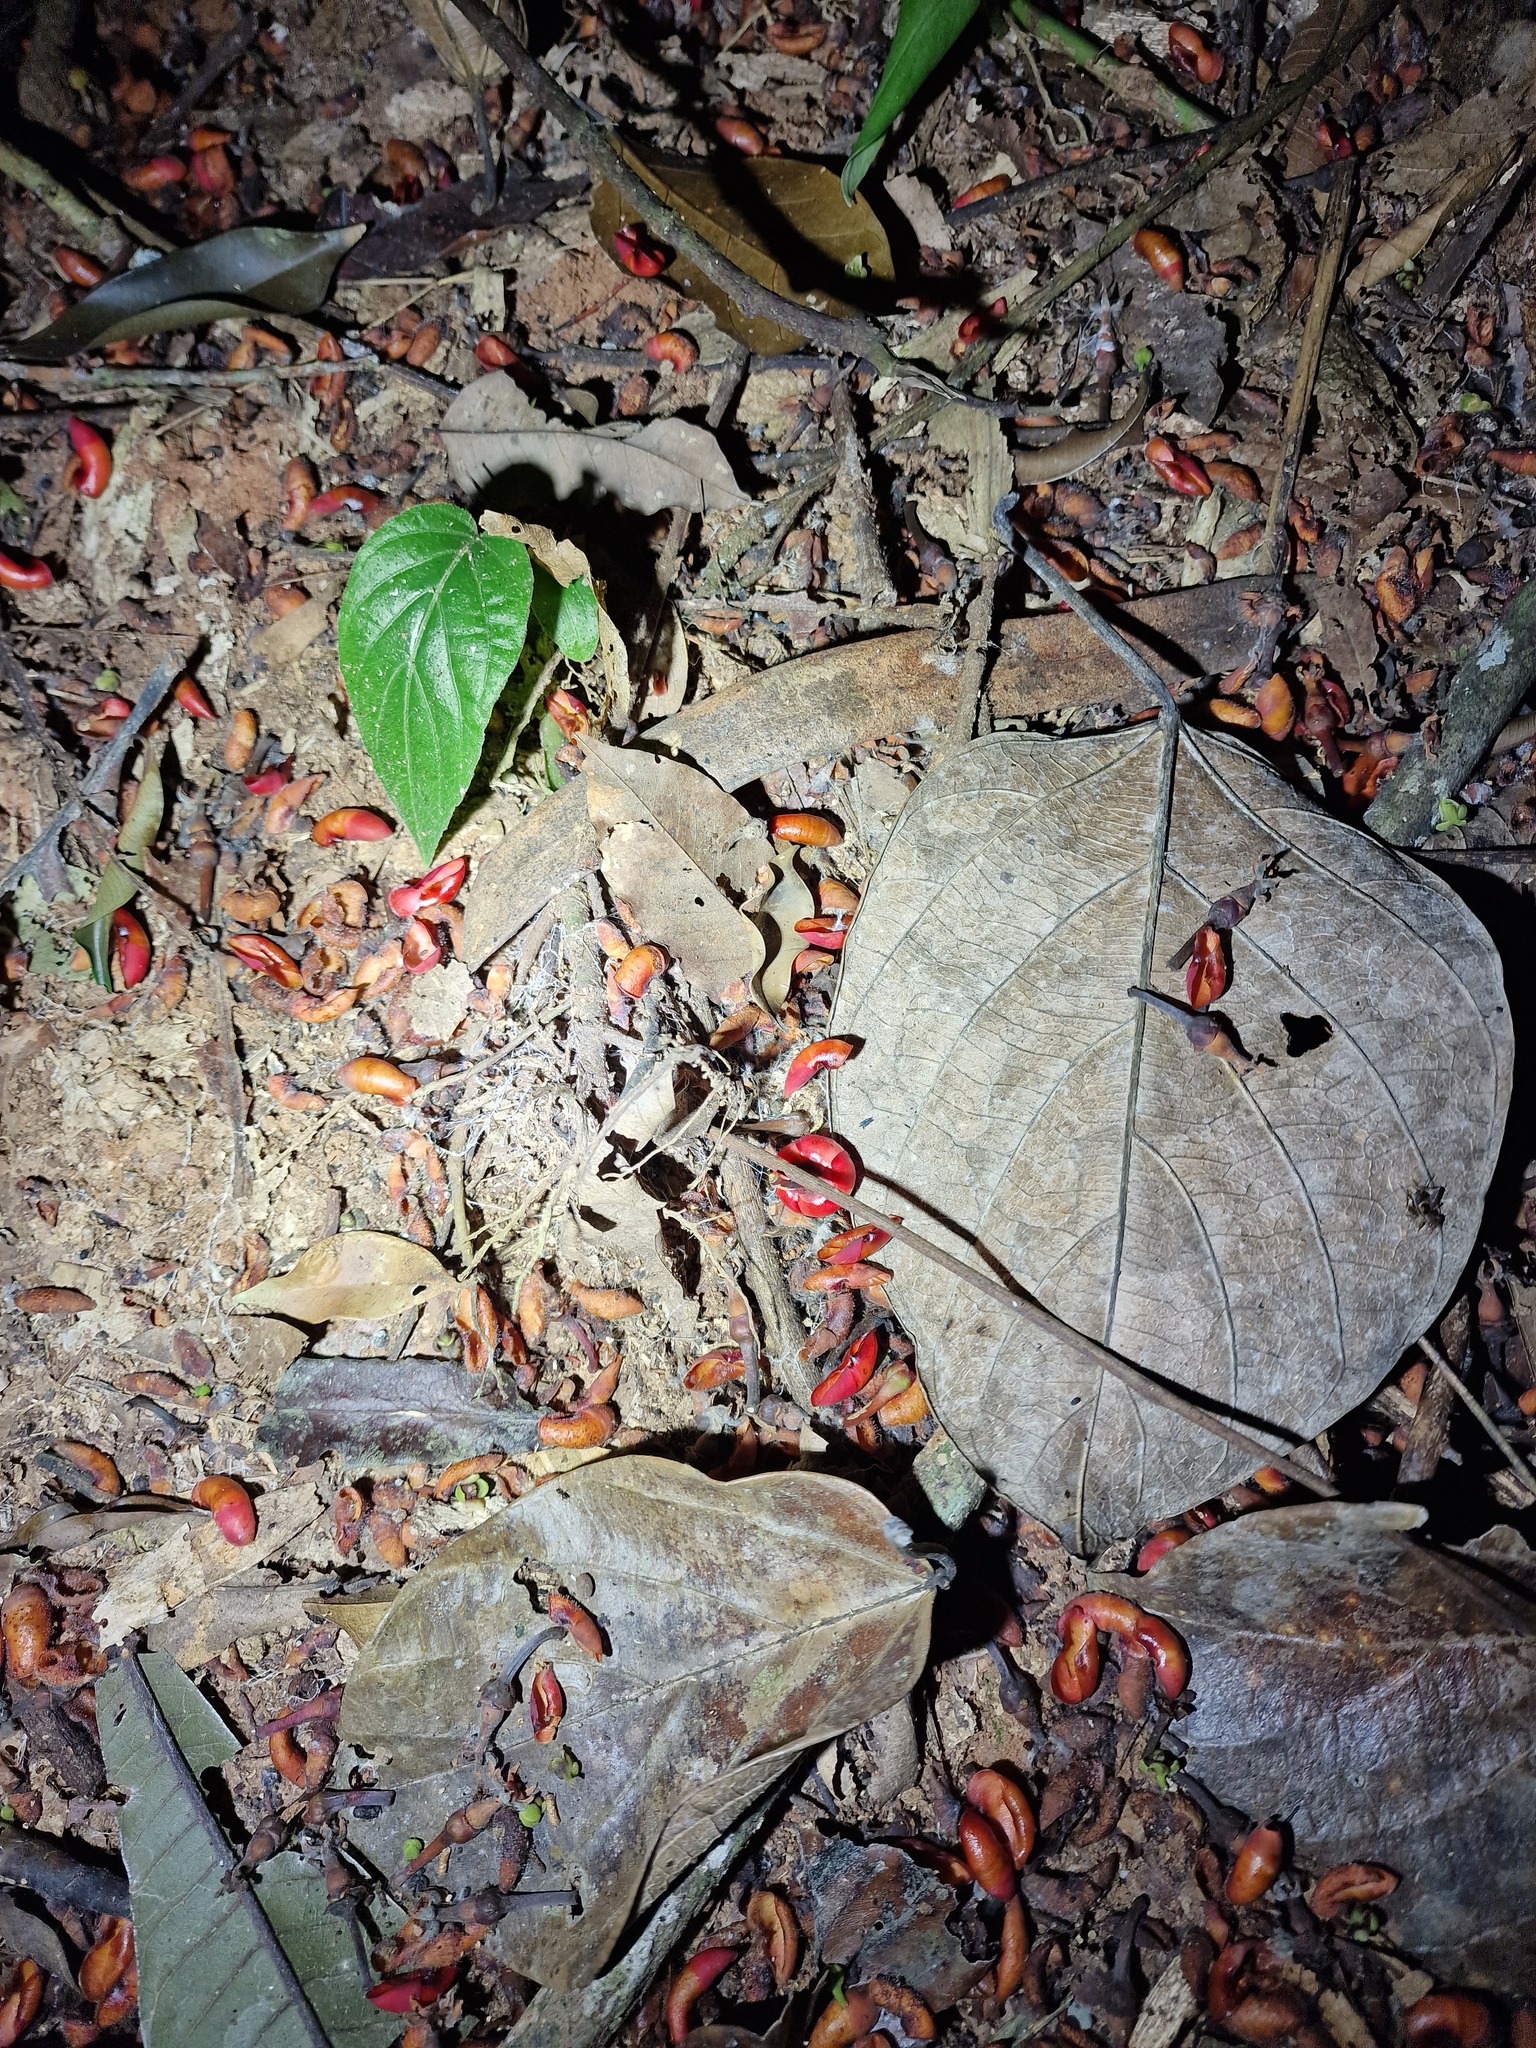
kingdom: Plantae
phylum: Tracheophyta
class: Magnoliopsida
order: Malpighiales
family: Clusiaceae
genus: Symphonia
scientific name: Symphonia globulifera
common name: Boarwood
